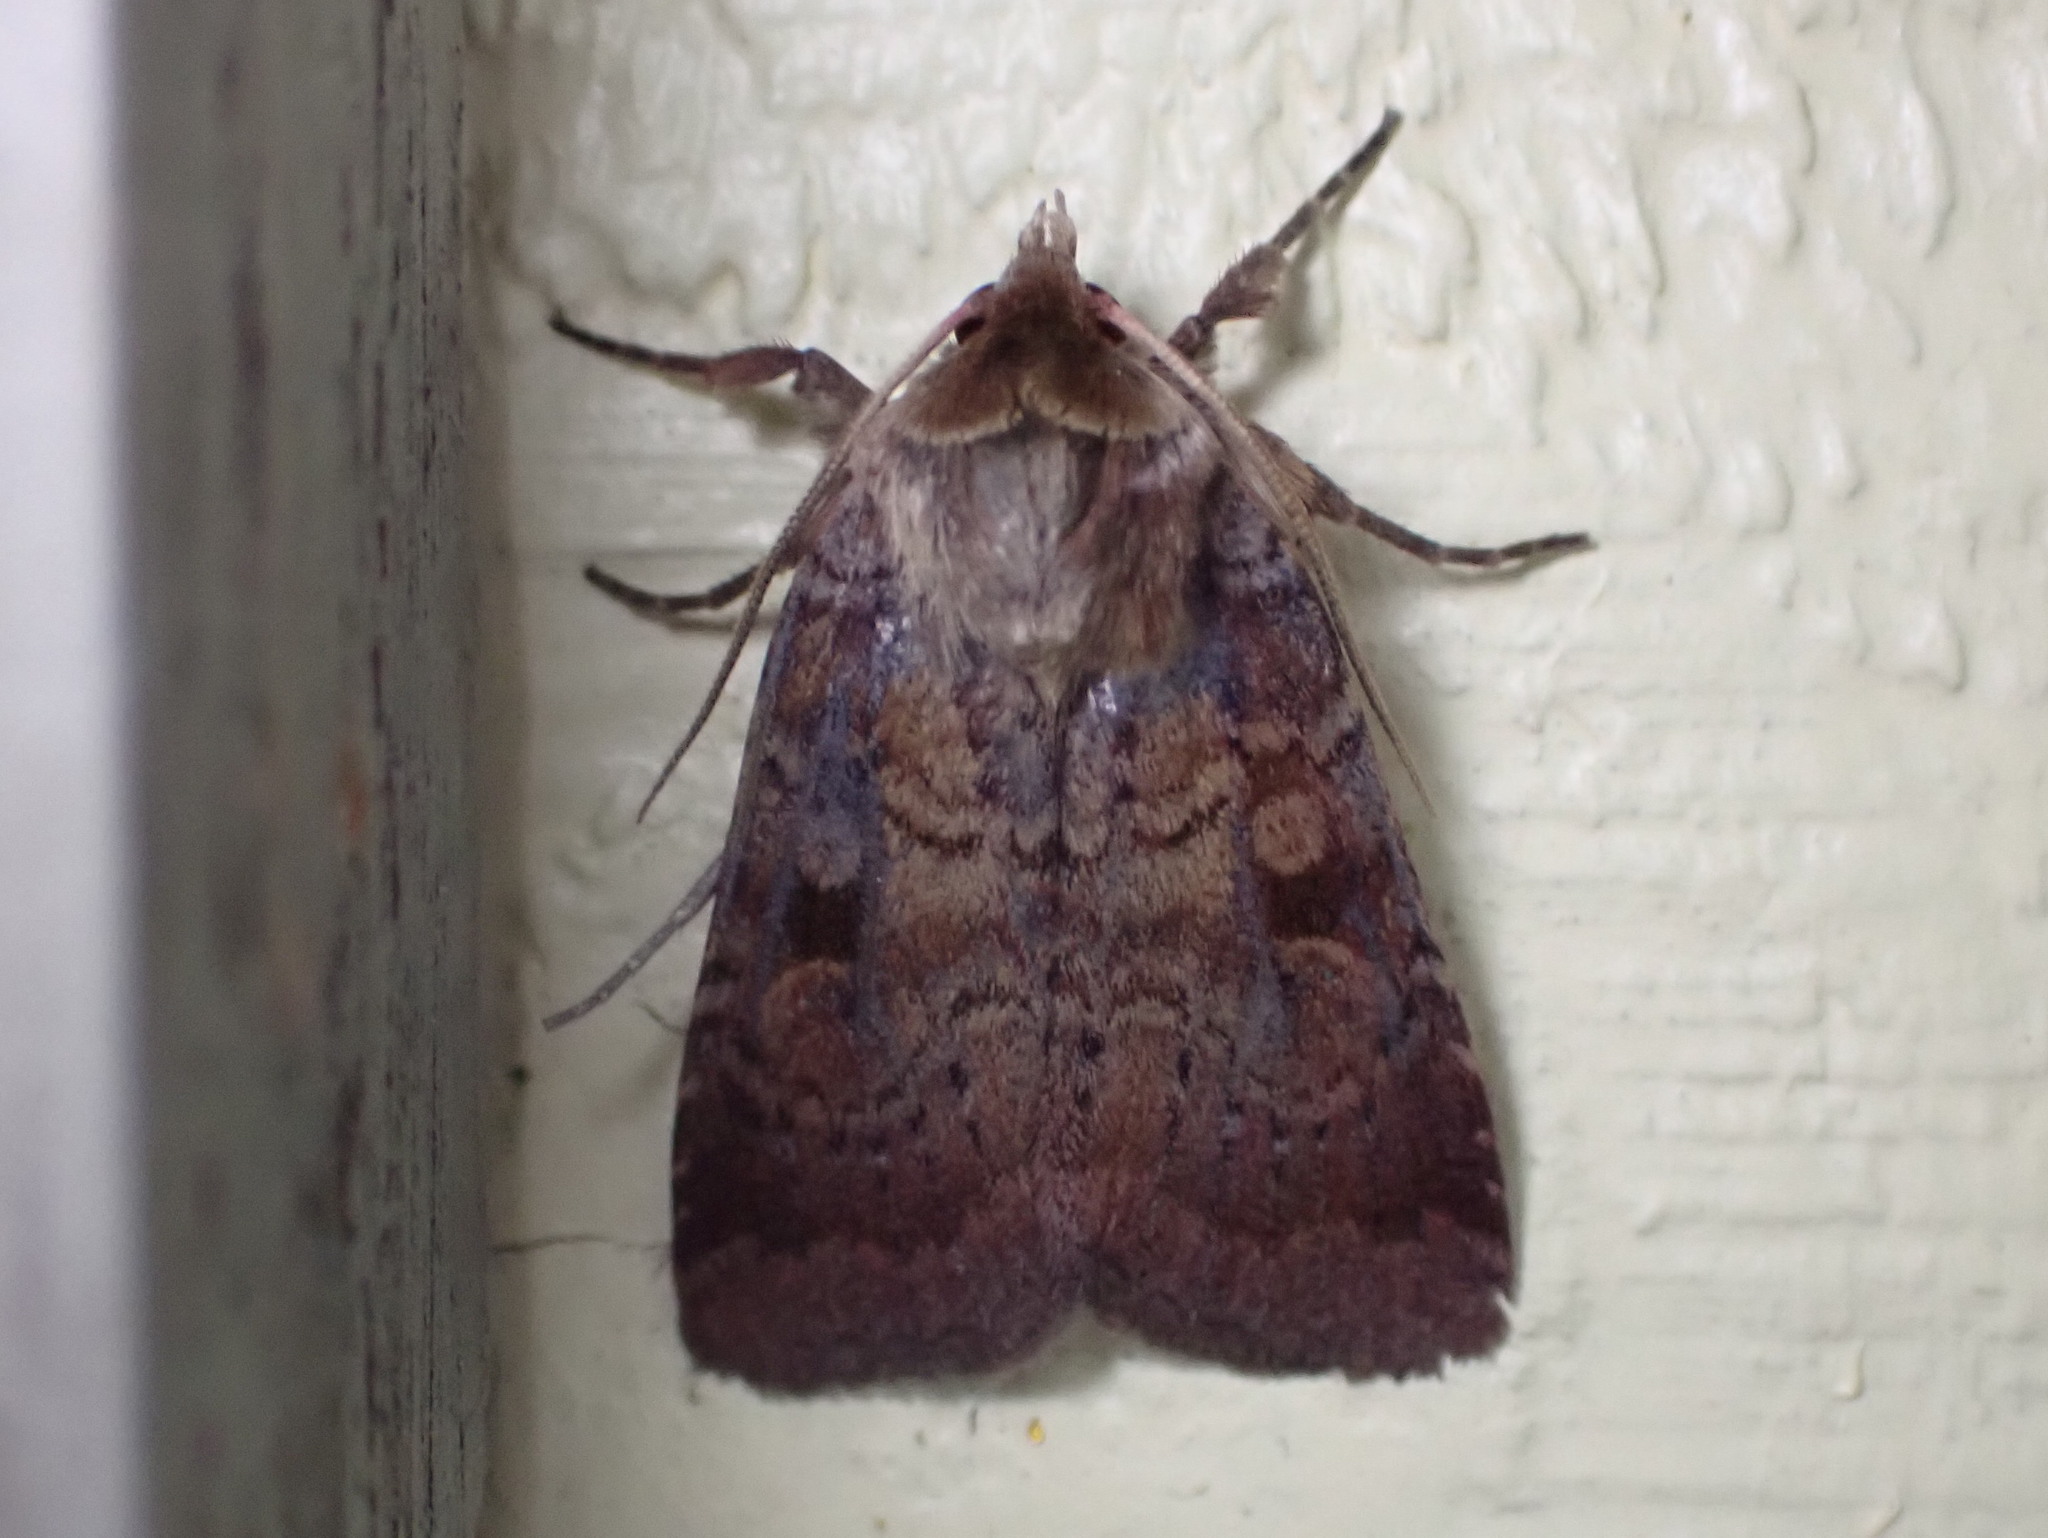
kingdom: Animalia
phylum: Arthropoda
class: Insecta
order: Lepidoptera
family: Noctuidae
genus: Lycophotia
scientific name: Lycophotia phyllophora
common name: Lycophotia moth
